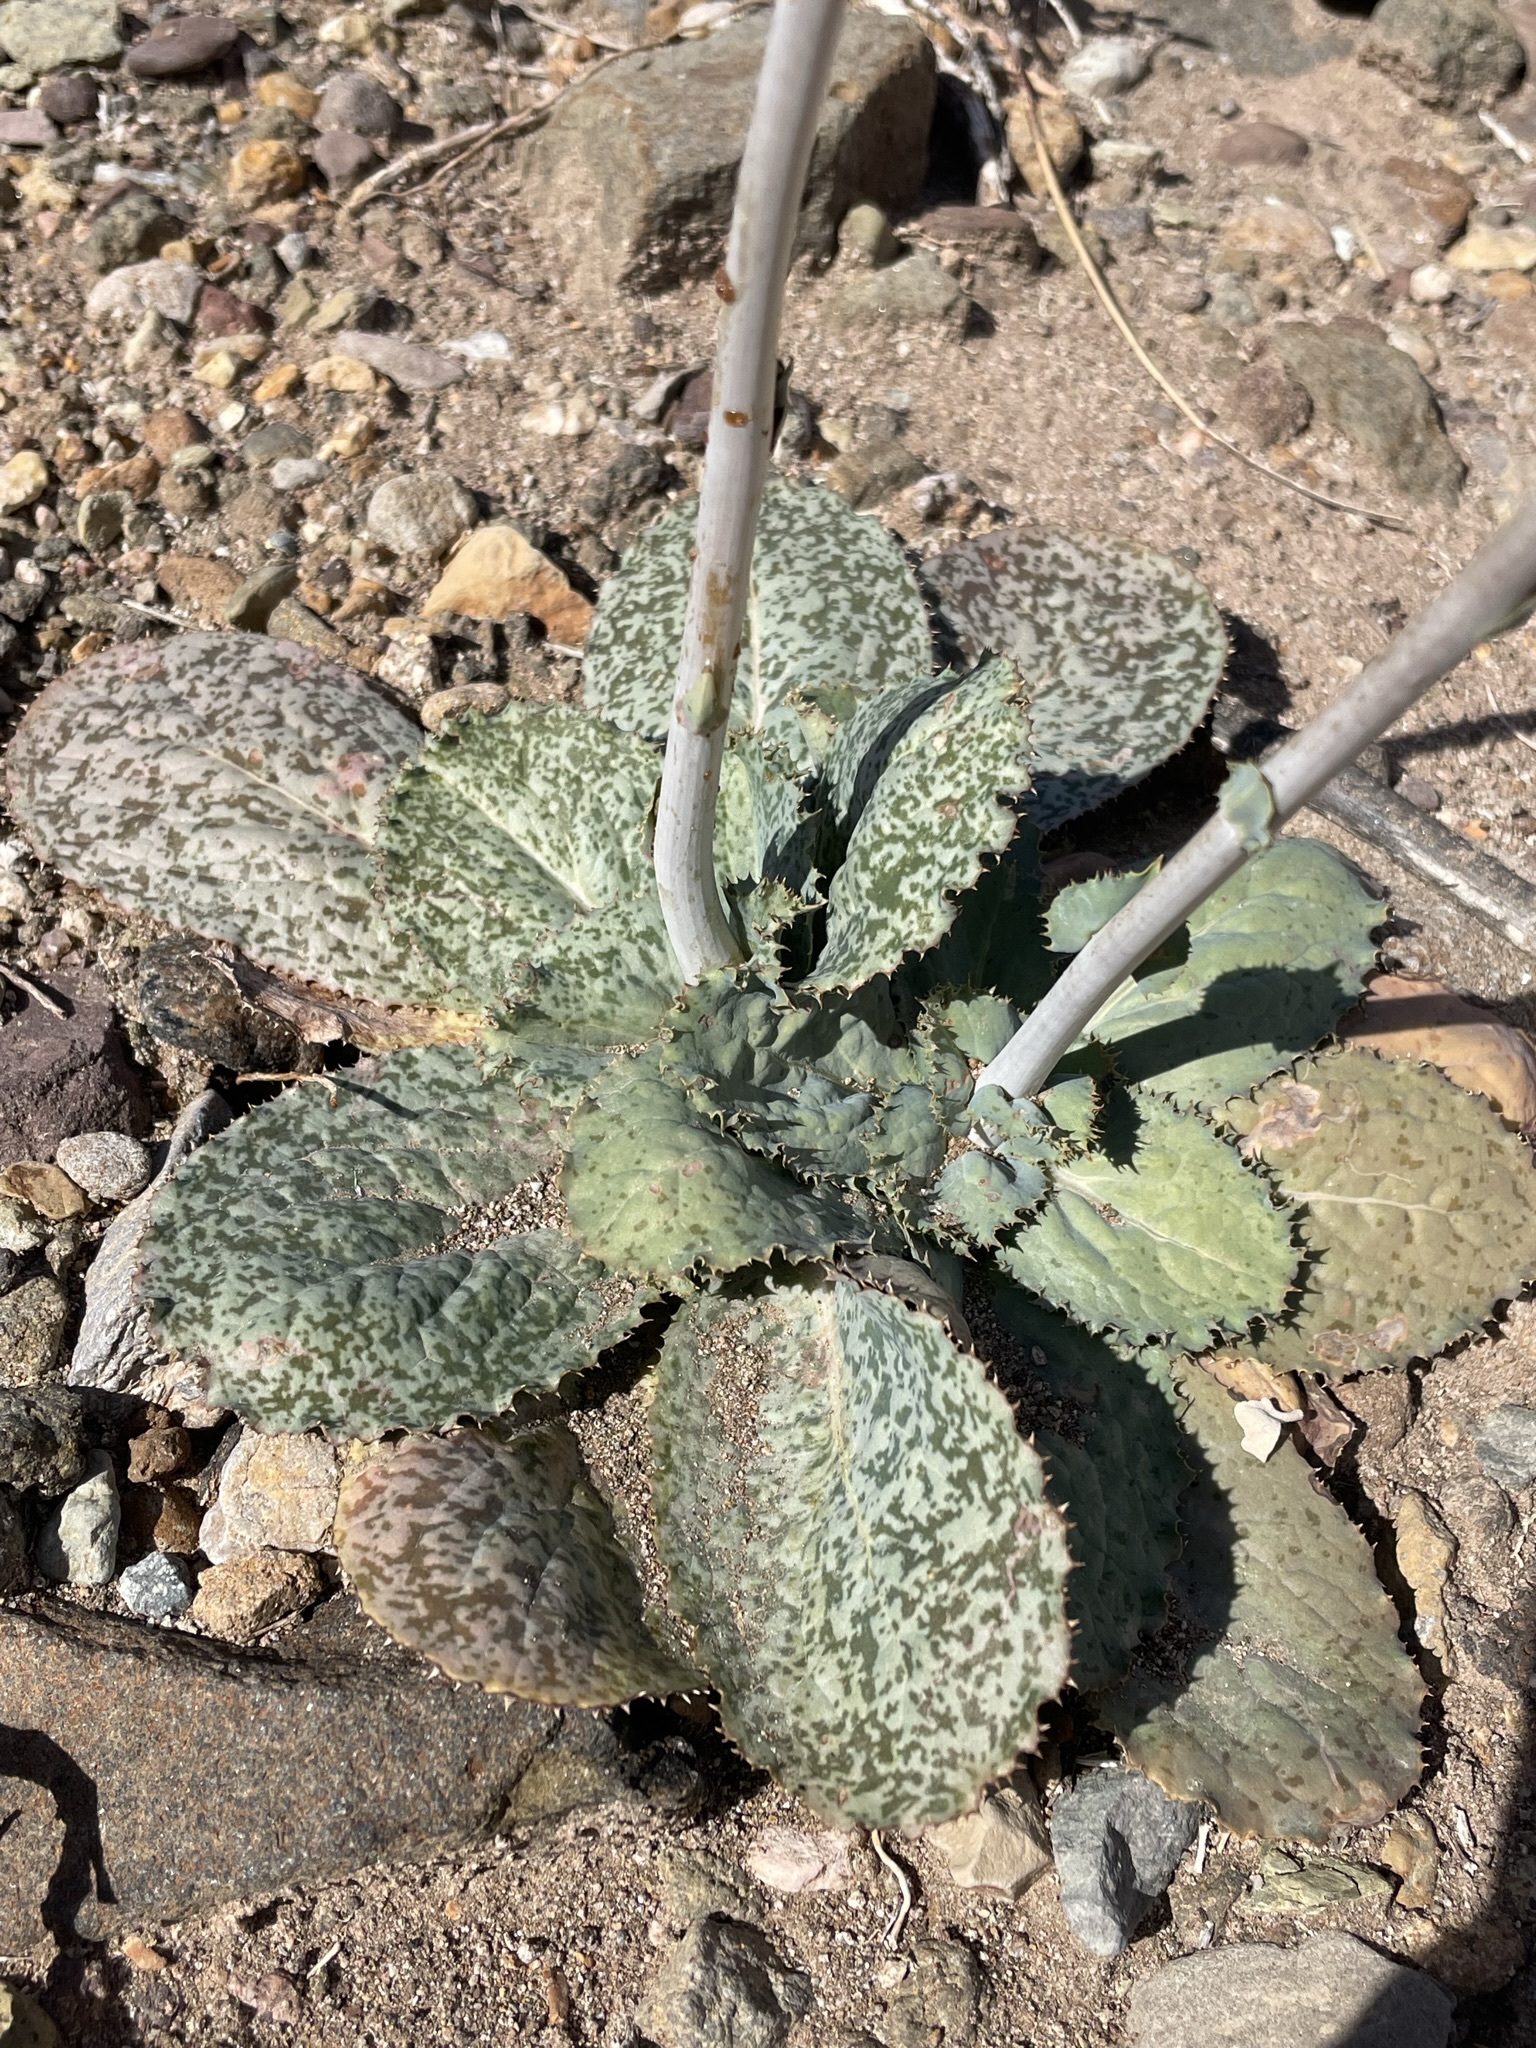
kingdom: Plantae
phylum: Tracheophyta
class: Magnoliopsida
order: Asterales
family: Asteraceae
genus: Atrichoseris
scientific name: Atrichoseris platyphylla
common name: Tobaccoweed
